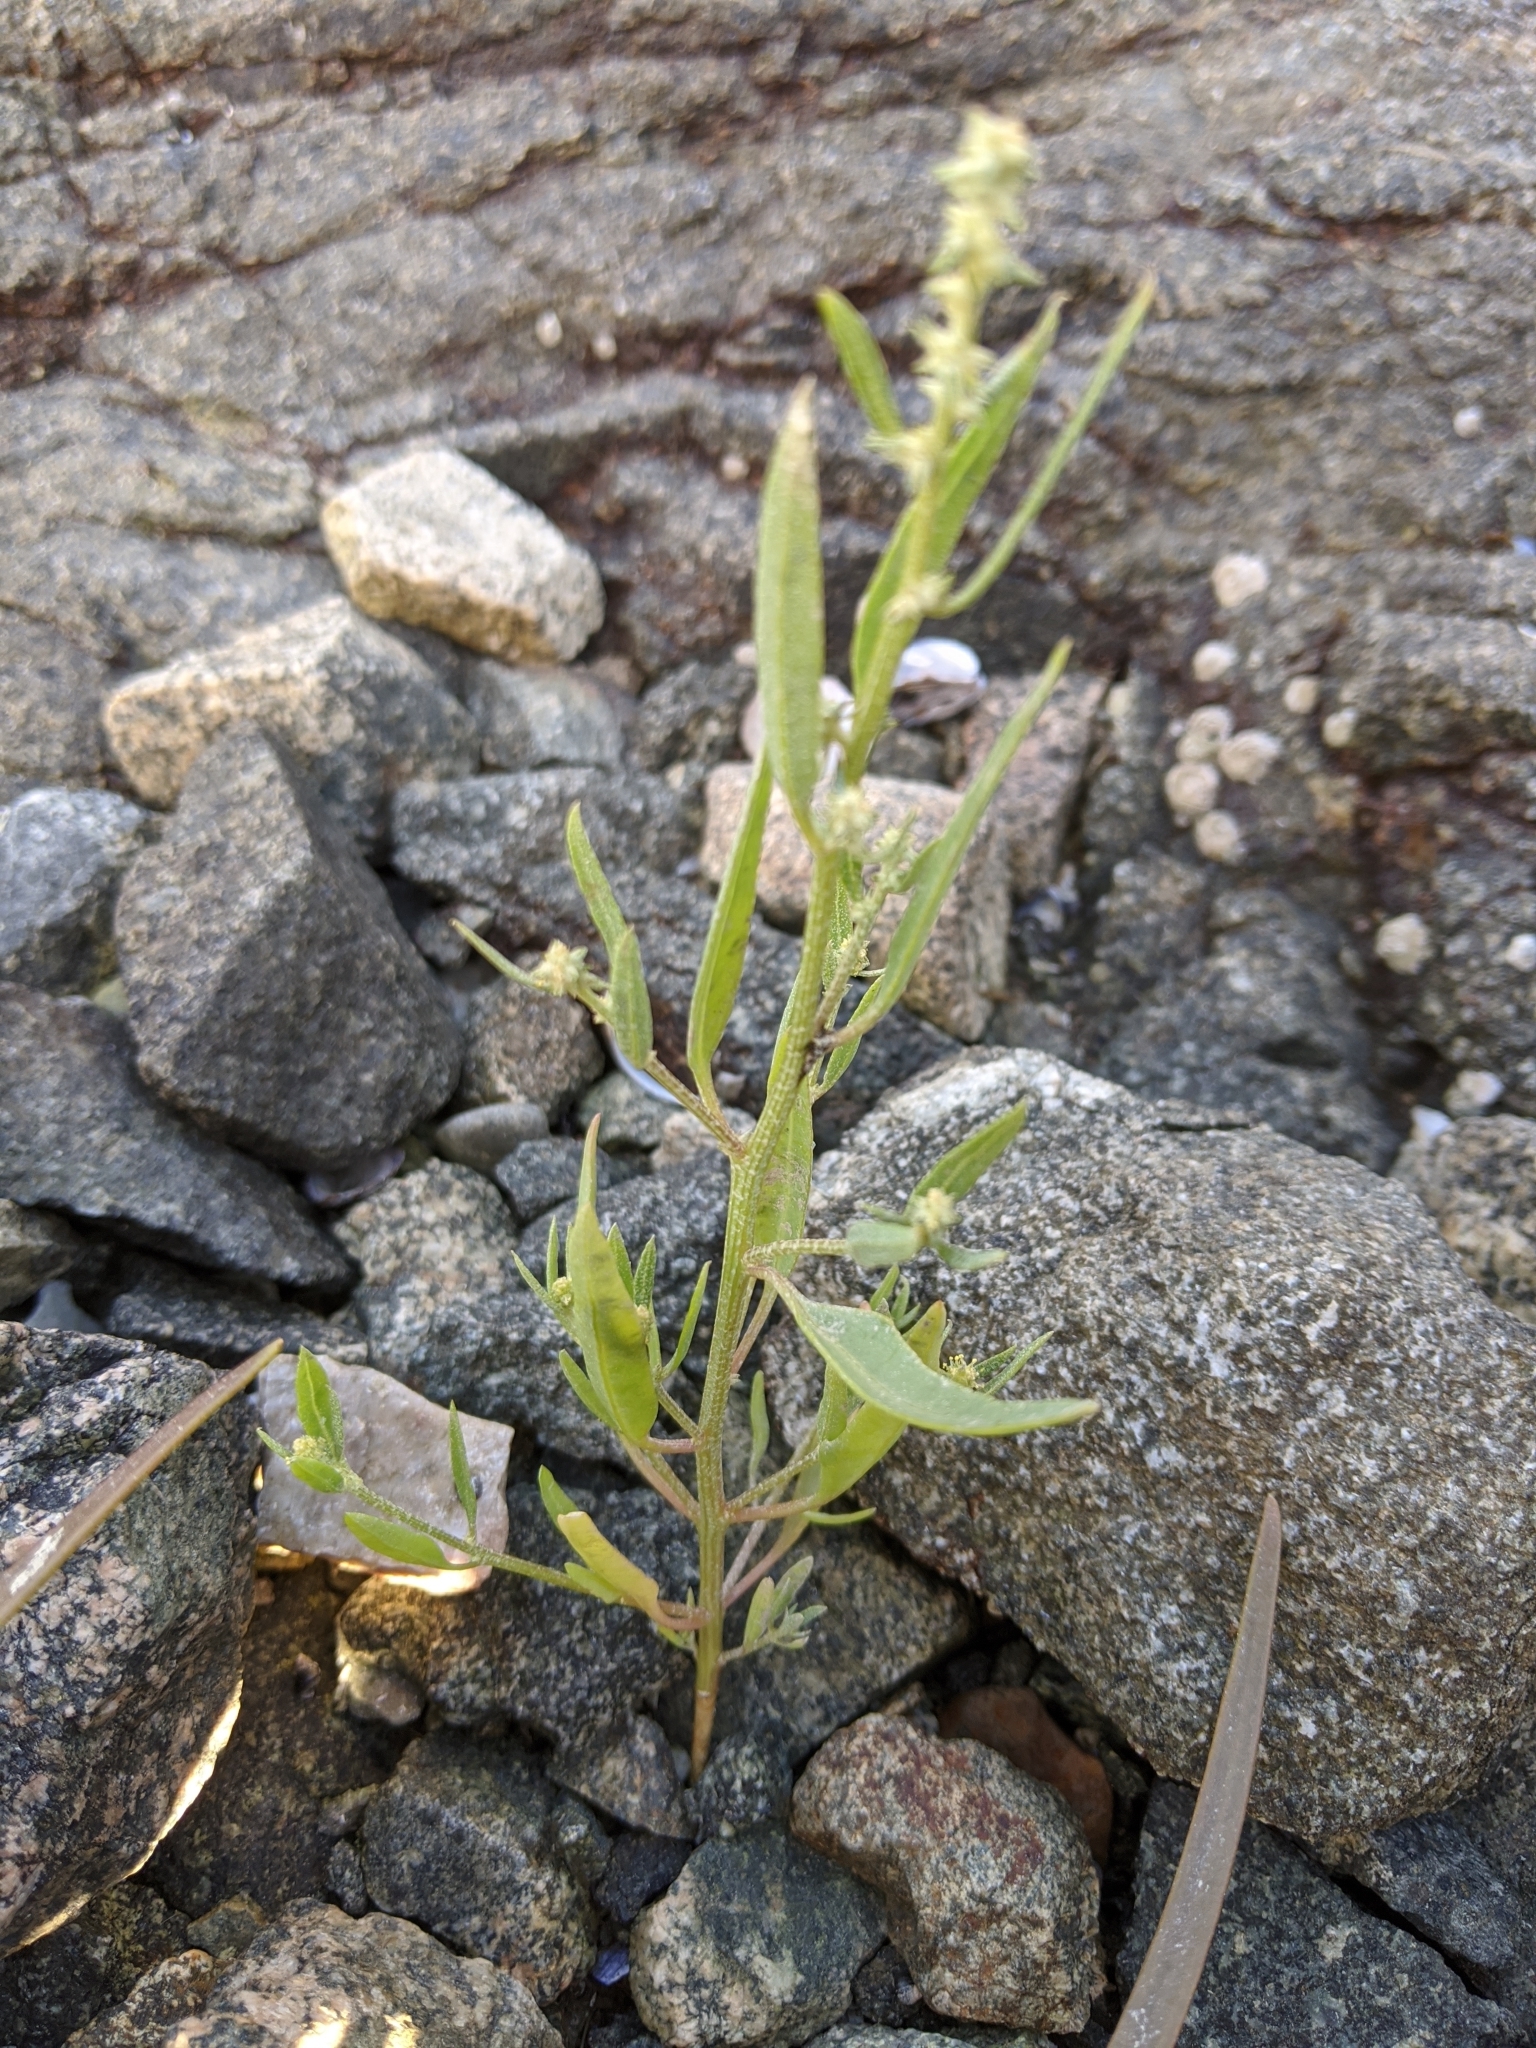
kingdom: Plantae
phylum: Tracheophyta
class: Magnoliopsida
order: Caryophyllales
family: Amaranthaceae
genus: Atriplex
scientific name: Atriplex patula
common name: Common orache
